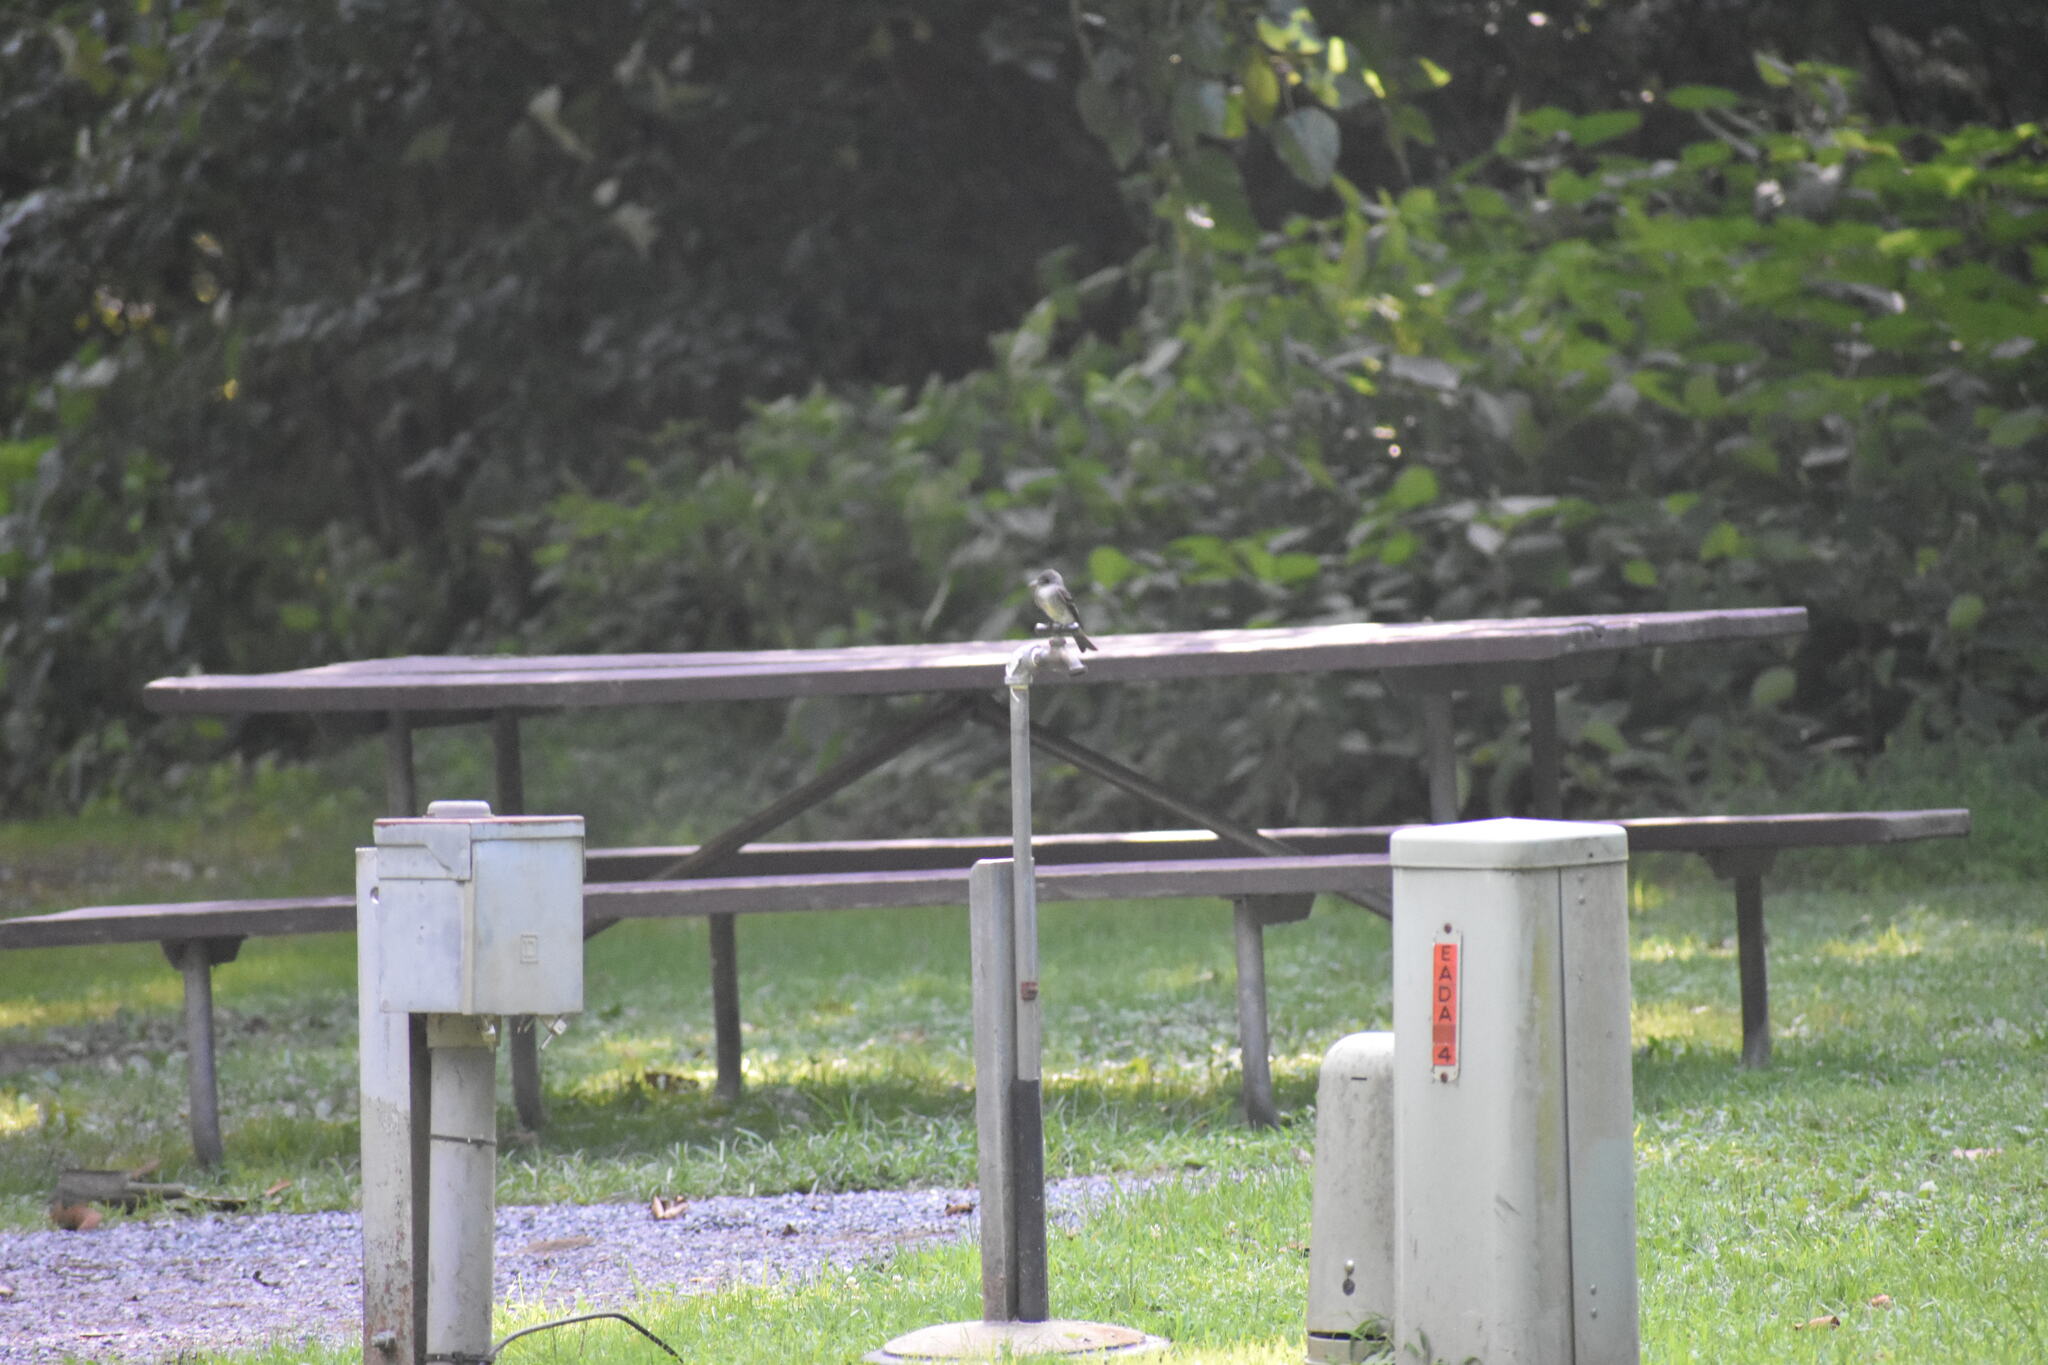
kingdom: Animalia
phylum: Chordata
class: Aves
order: Passeriformes
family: Tyrannidae
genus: Contopus
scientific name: Contopus virens
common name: Eastern wood-pewee
